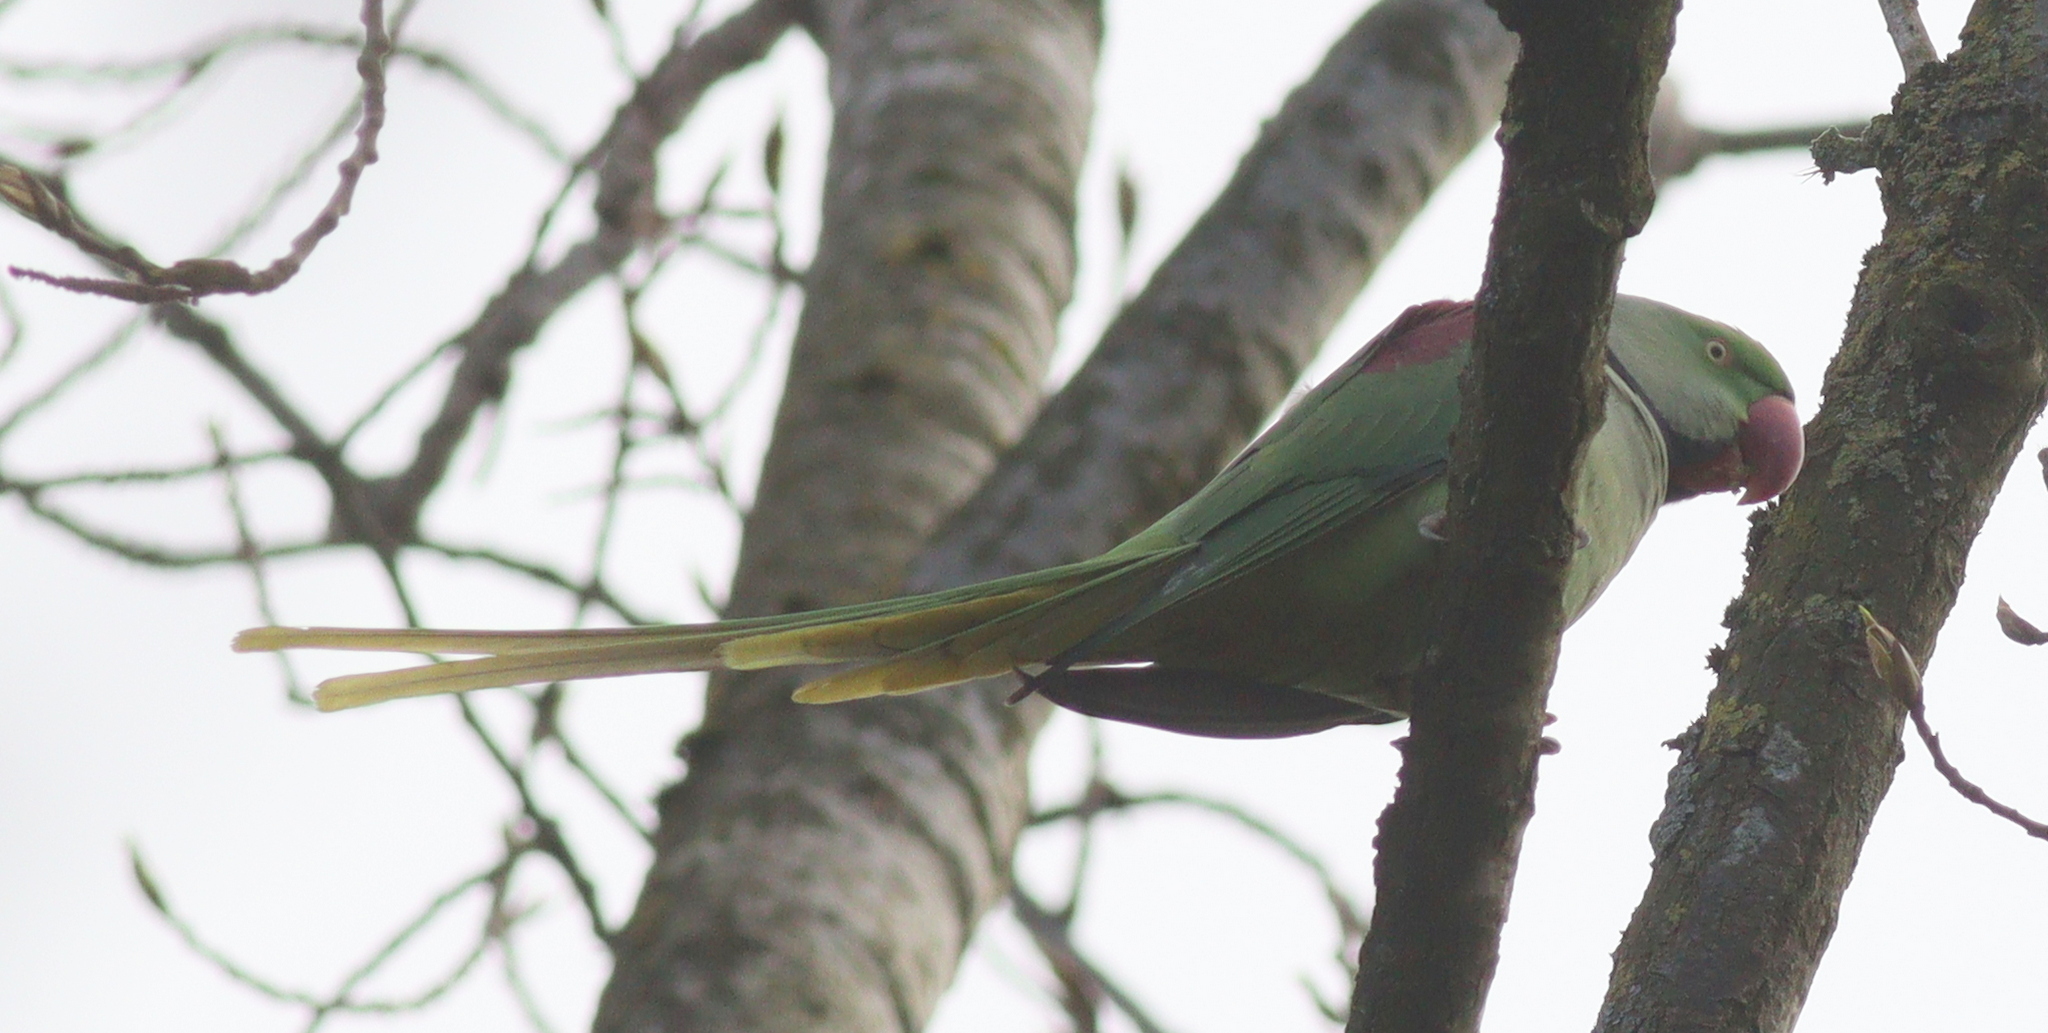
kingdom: Animalia
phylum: Chordata
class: Aves
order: Psittaciformes
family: Psittacidae
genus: Psittacula
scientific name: Psittacula eupatria
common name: Alexandrine parakeet
